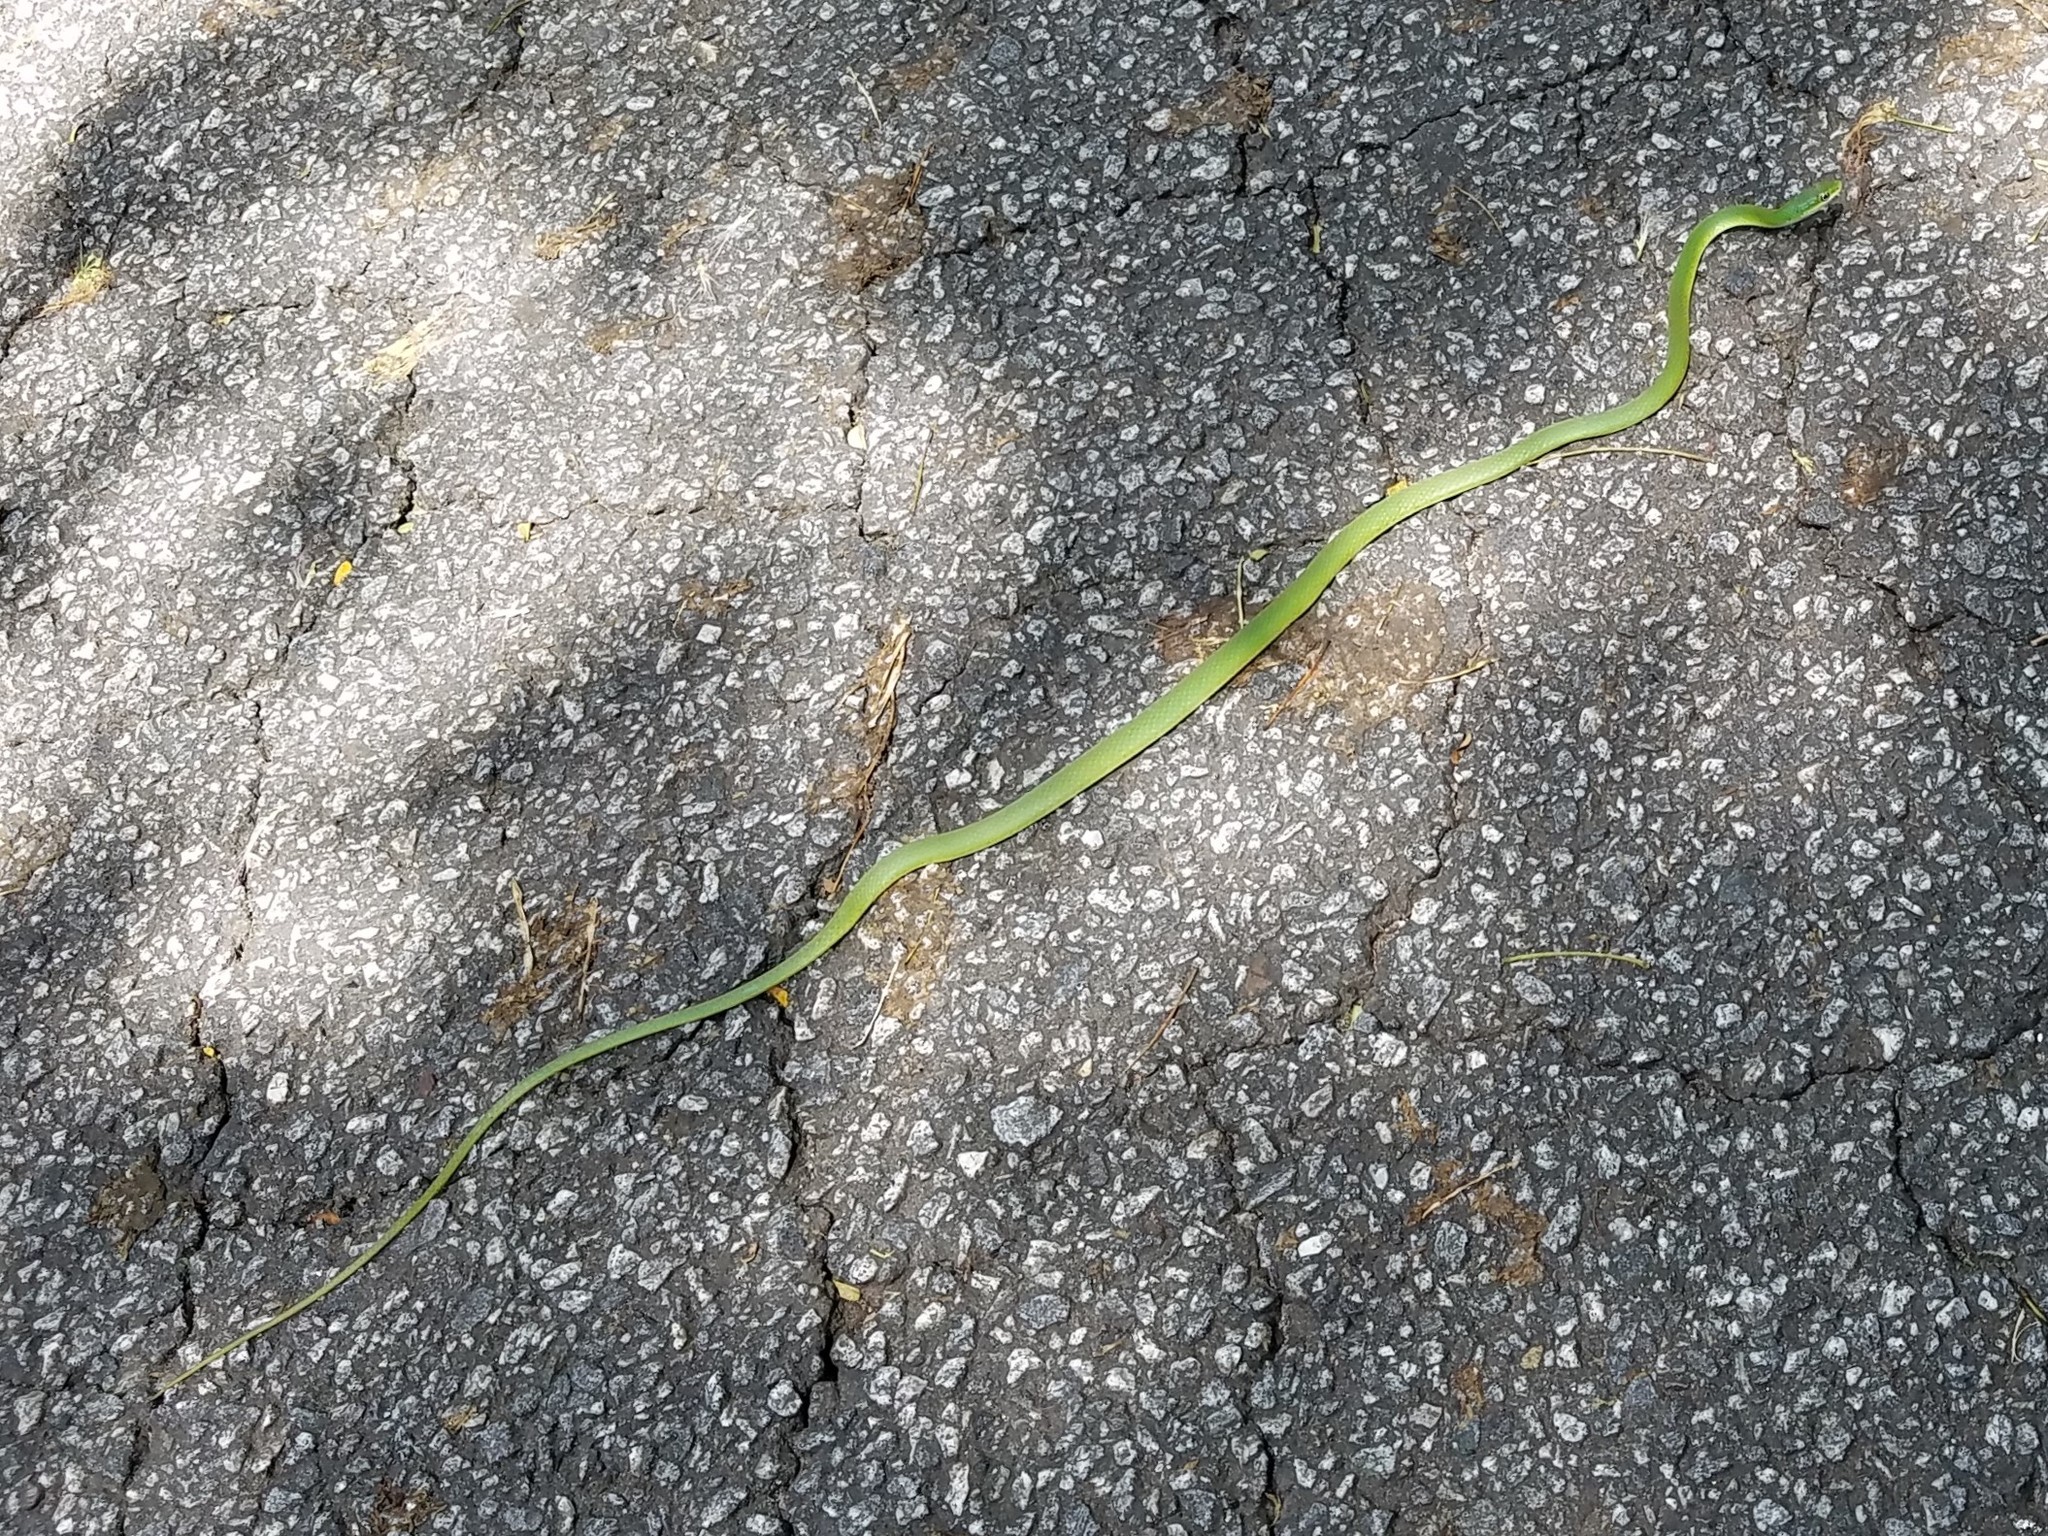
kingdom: Animalia
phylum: Chordata
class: Squamata
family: Colubridae
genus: Opheodrys
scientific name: Opheodrys aestivus
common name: Rough greensnake
